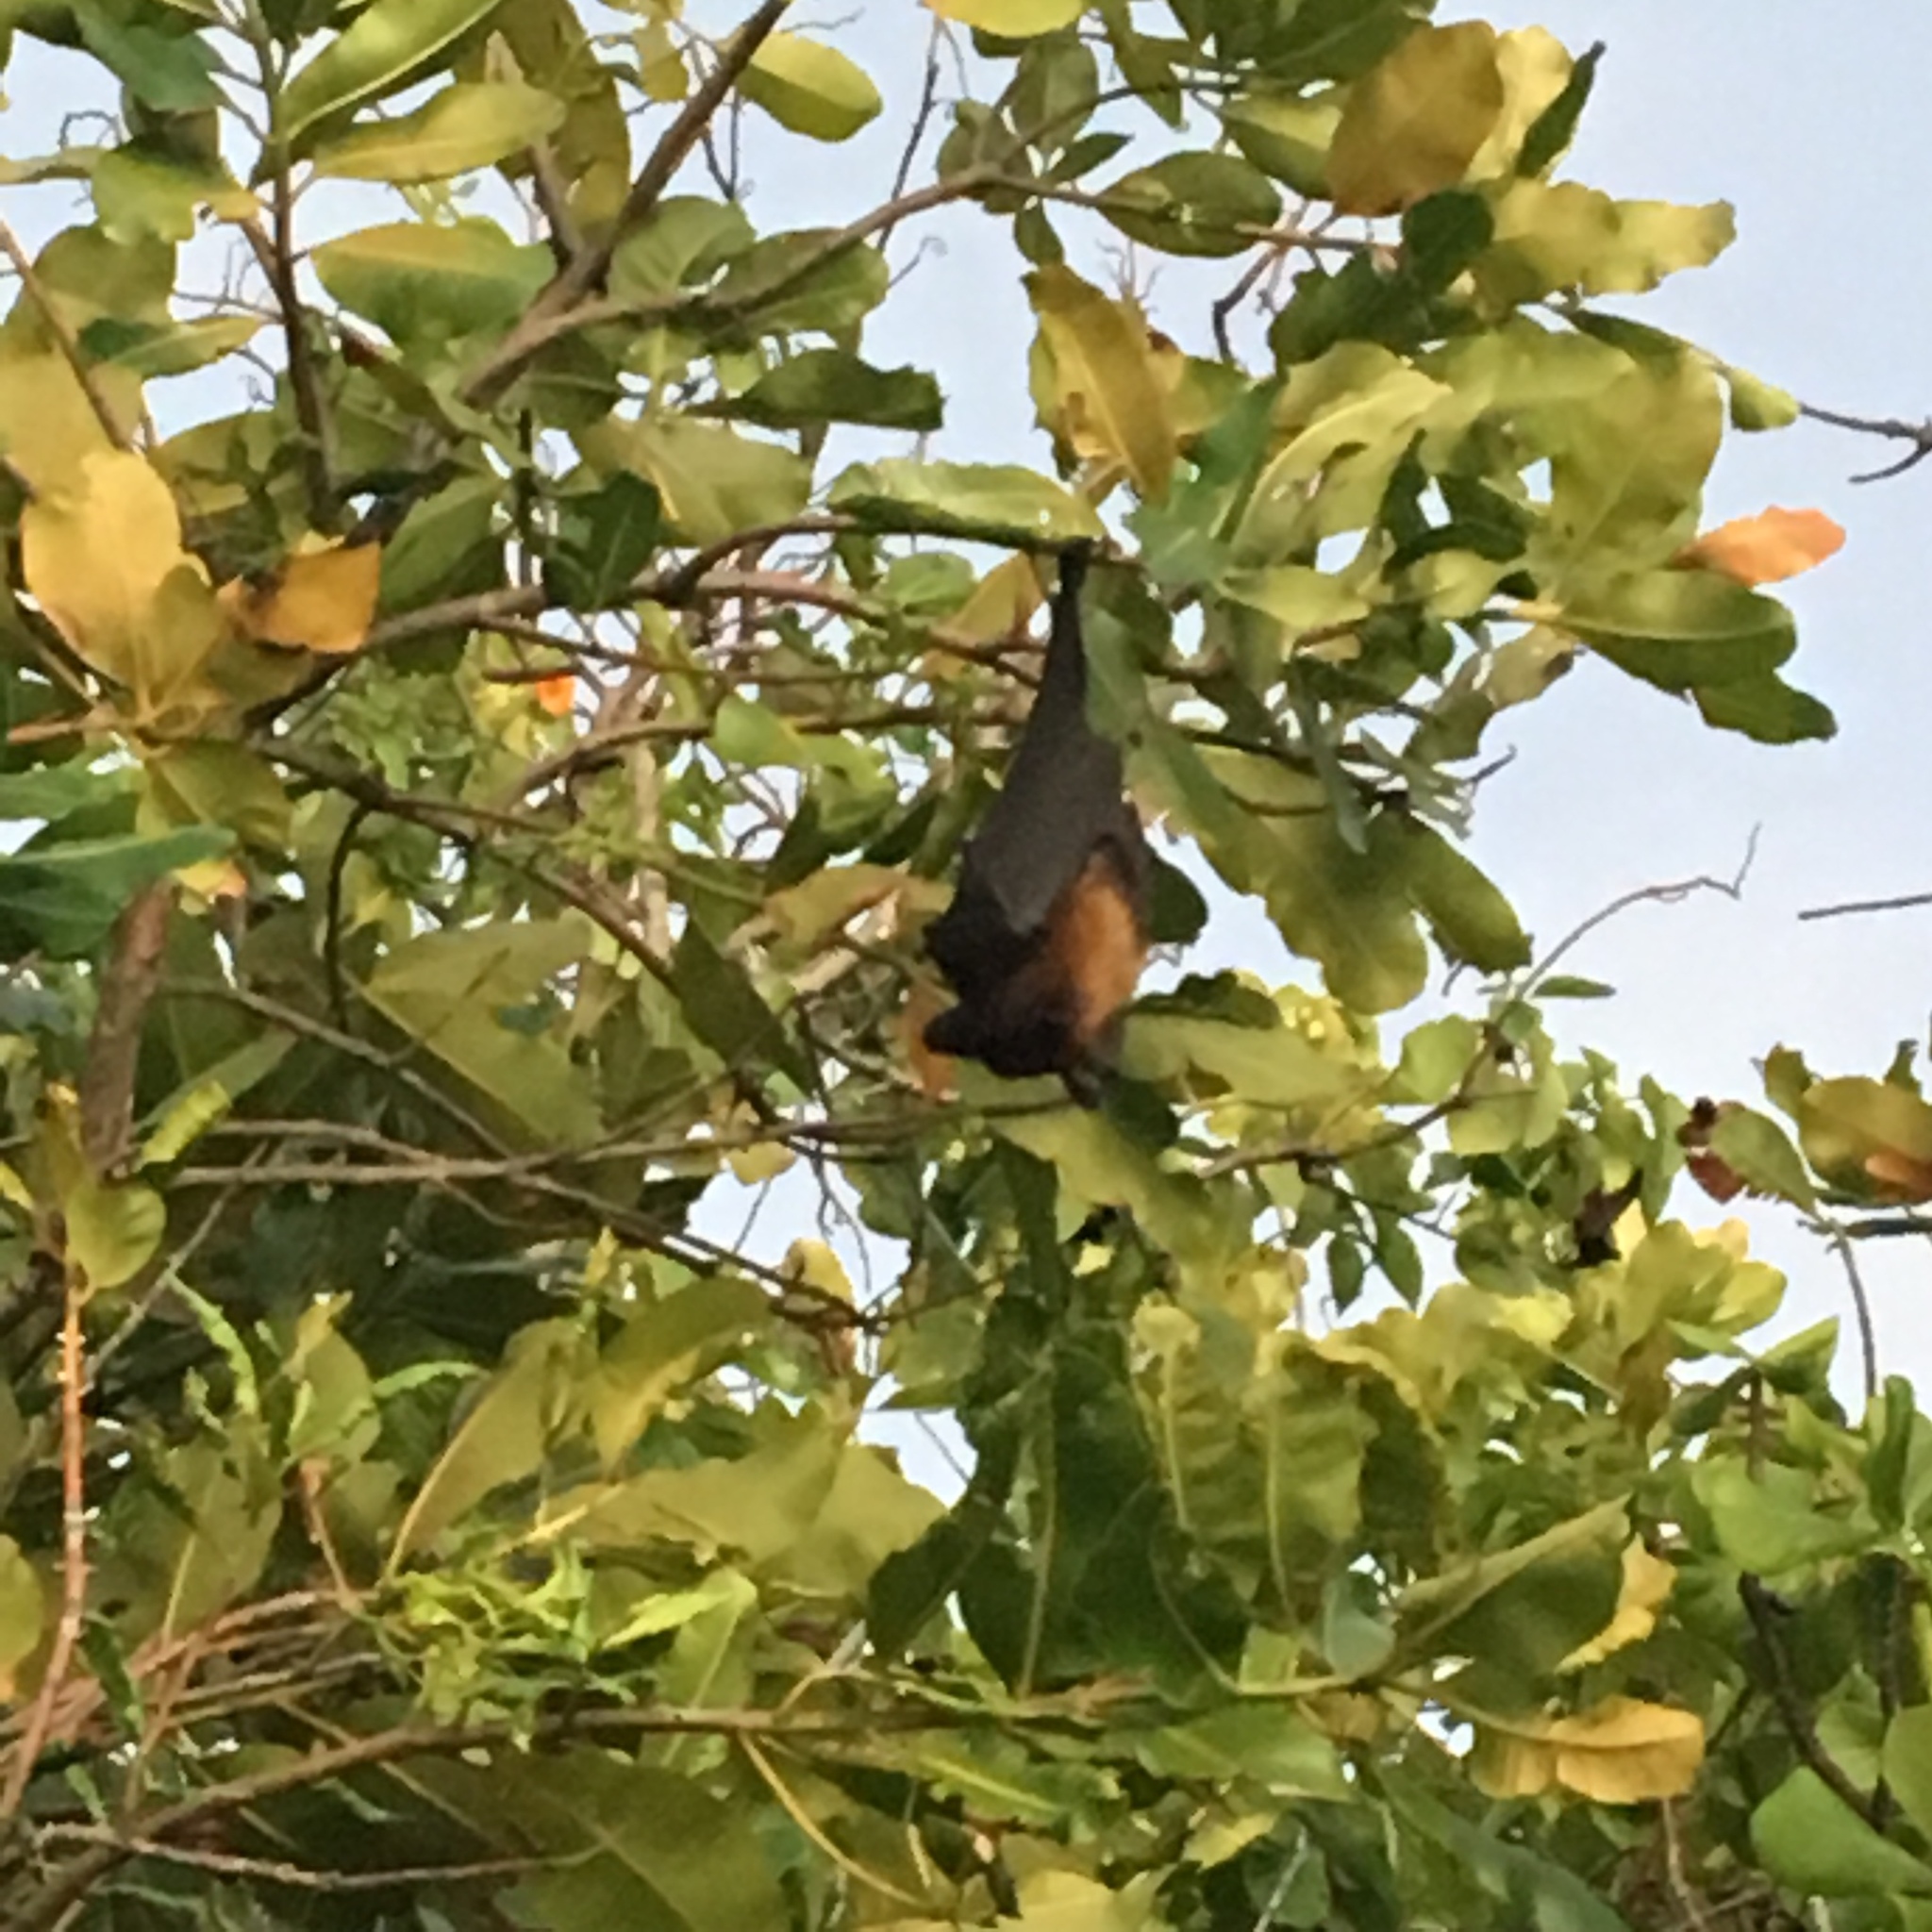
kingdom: Animalia
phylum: Chordata
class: Mammalia
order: Chiroptera
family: Pteropodidae
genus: Pteropus
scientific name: Pteropus vampyrus
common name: Large flying fox
